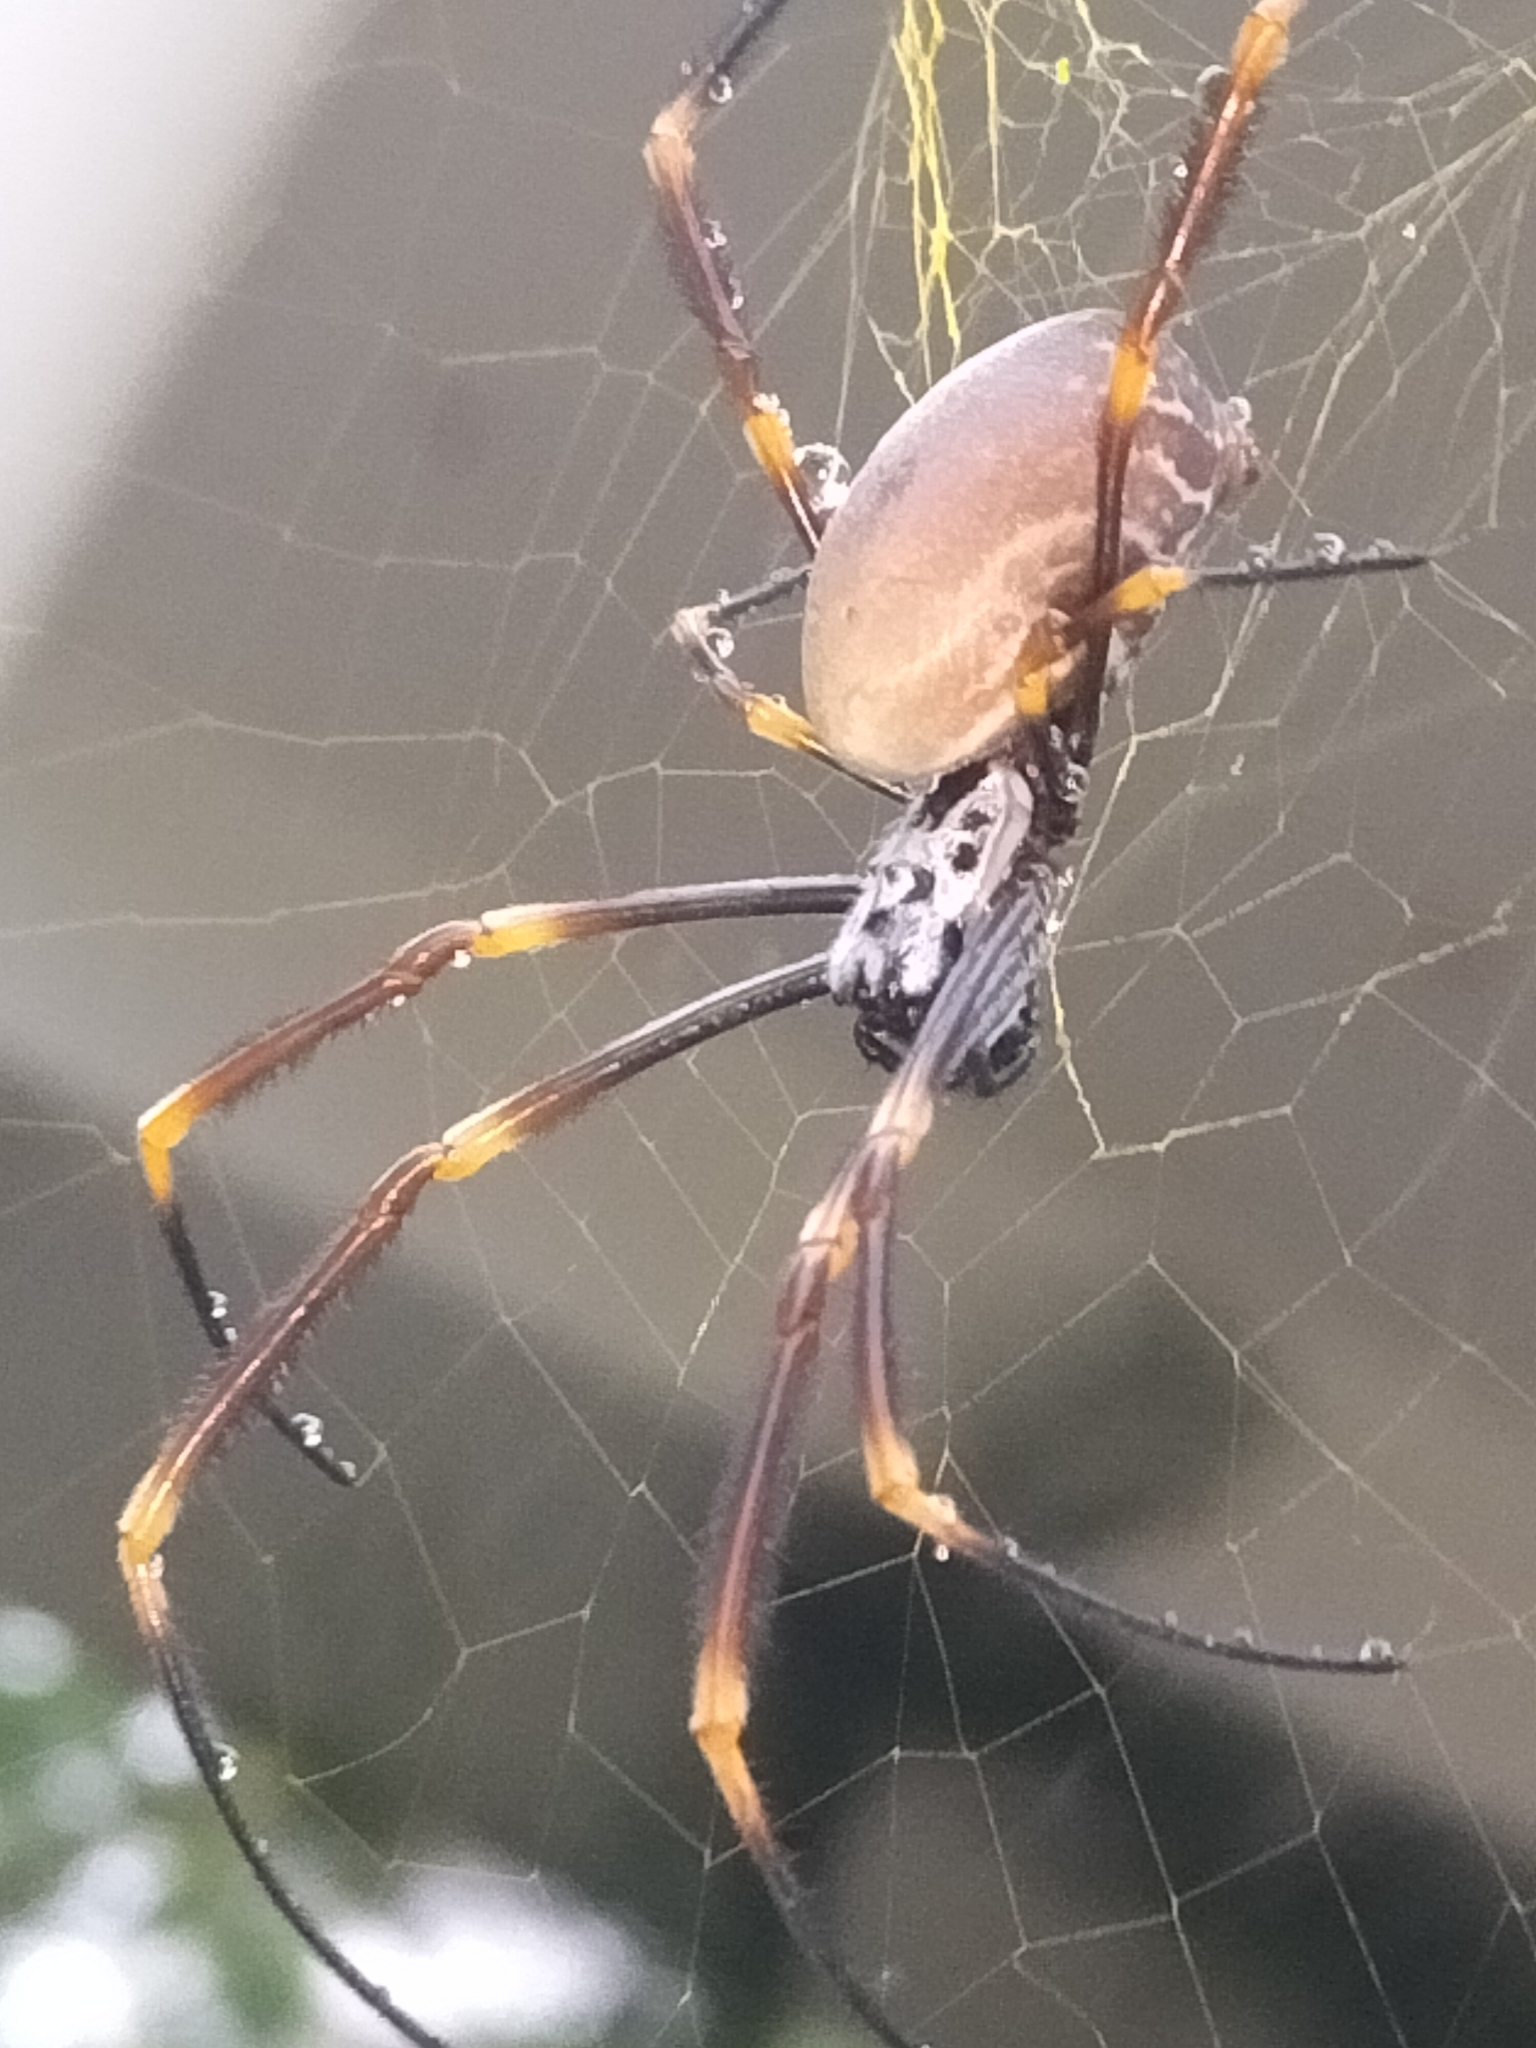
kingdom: Animalia
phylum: Arthropoda
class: Arachnida
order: Araneae
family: Araneidae
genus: Trichonephila
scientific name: Trichonephila plumipes
